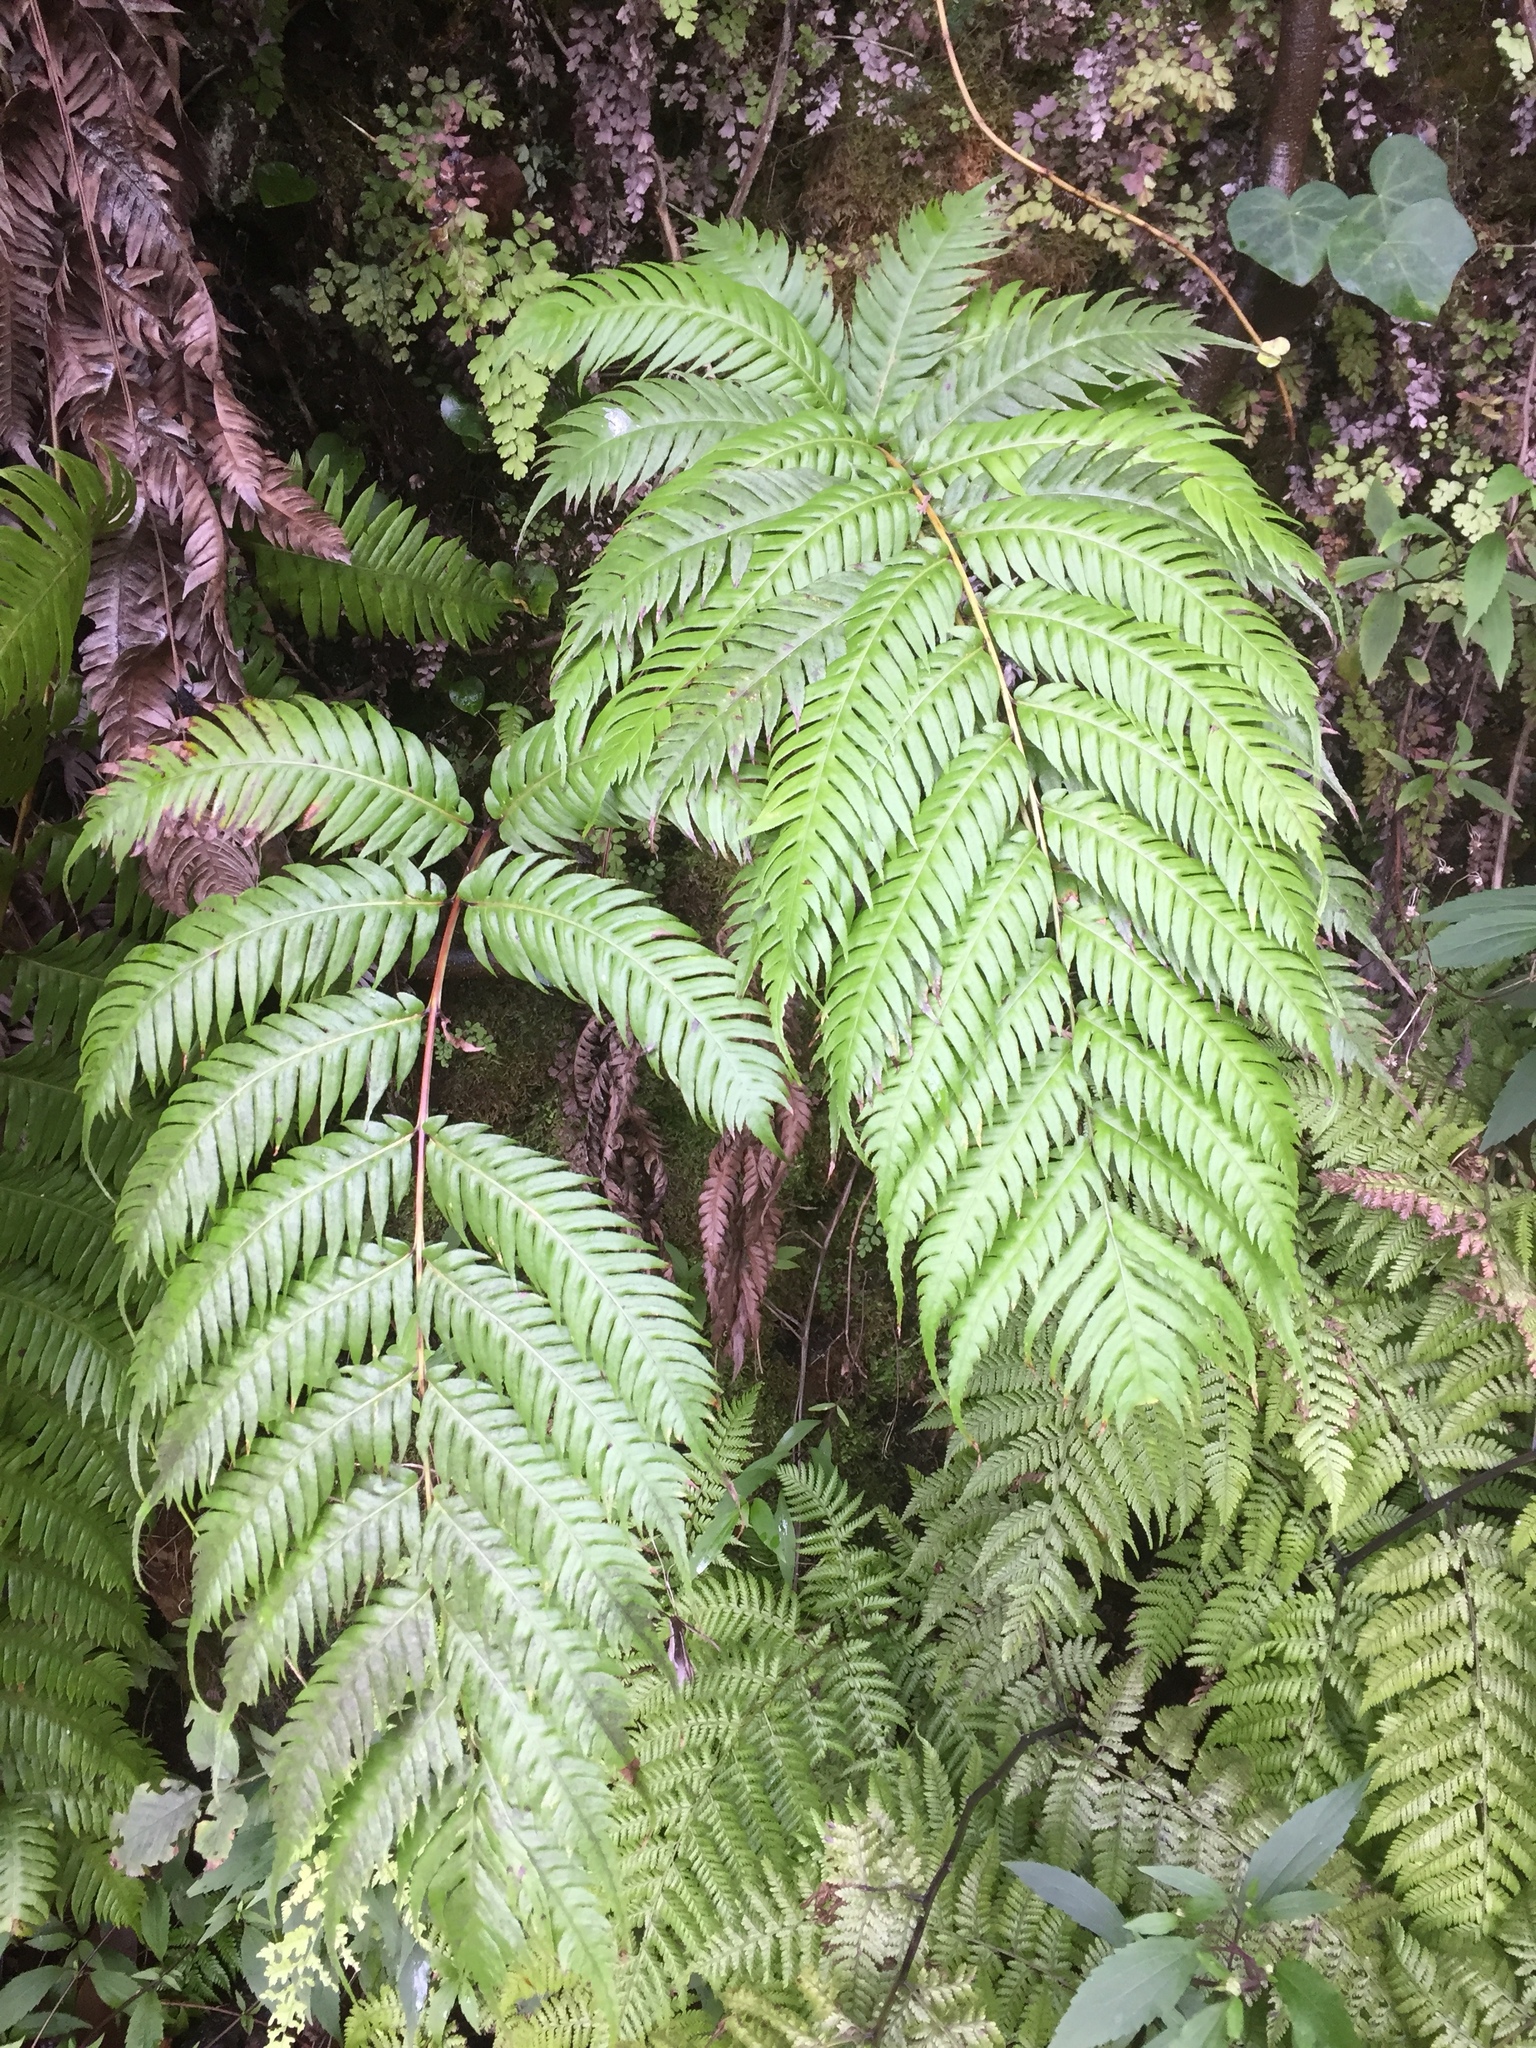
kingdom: Plantae
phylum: Tracheophyta
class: Polypodiopsida
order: Polypodiales
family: Blechnaceae
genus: Woodwardia
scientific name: Woodwardia radicans
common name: Rooting chainfern
